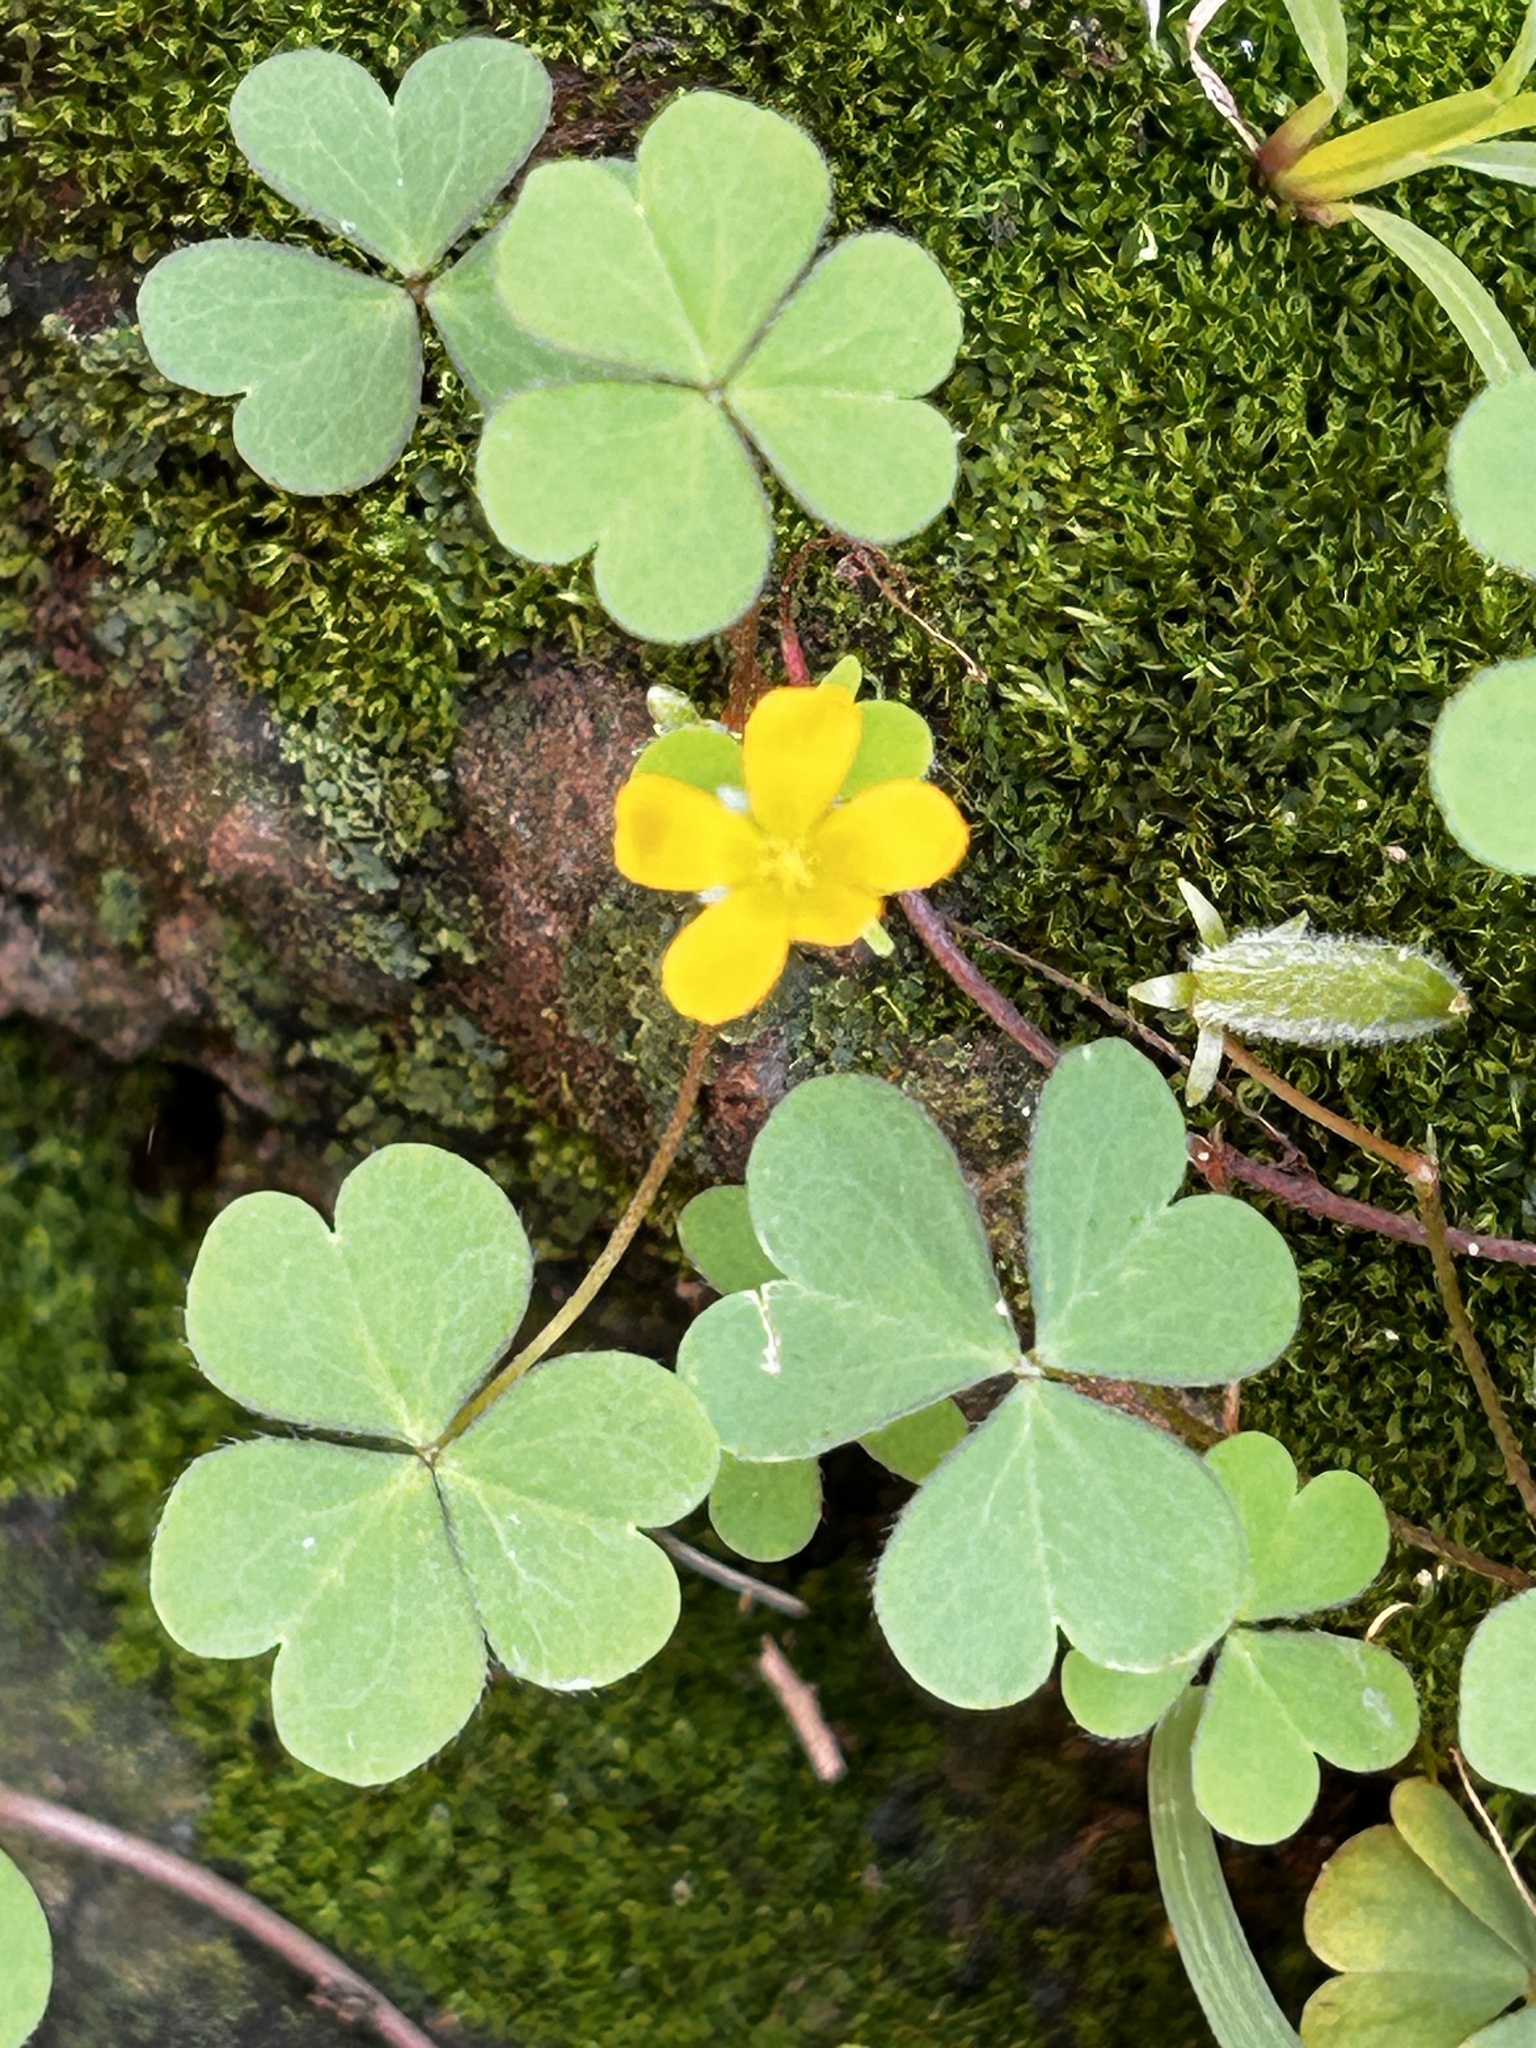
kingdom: Plantae
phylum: Tracheophyta
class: Magnoliopsida
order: Oxalidales
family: Oxalidaceae
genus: Oxalis
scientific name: Oxalis corniculata
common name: Procumbent yellow-sorrel
